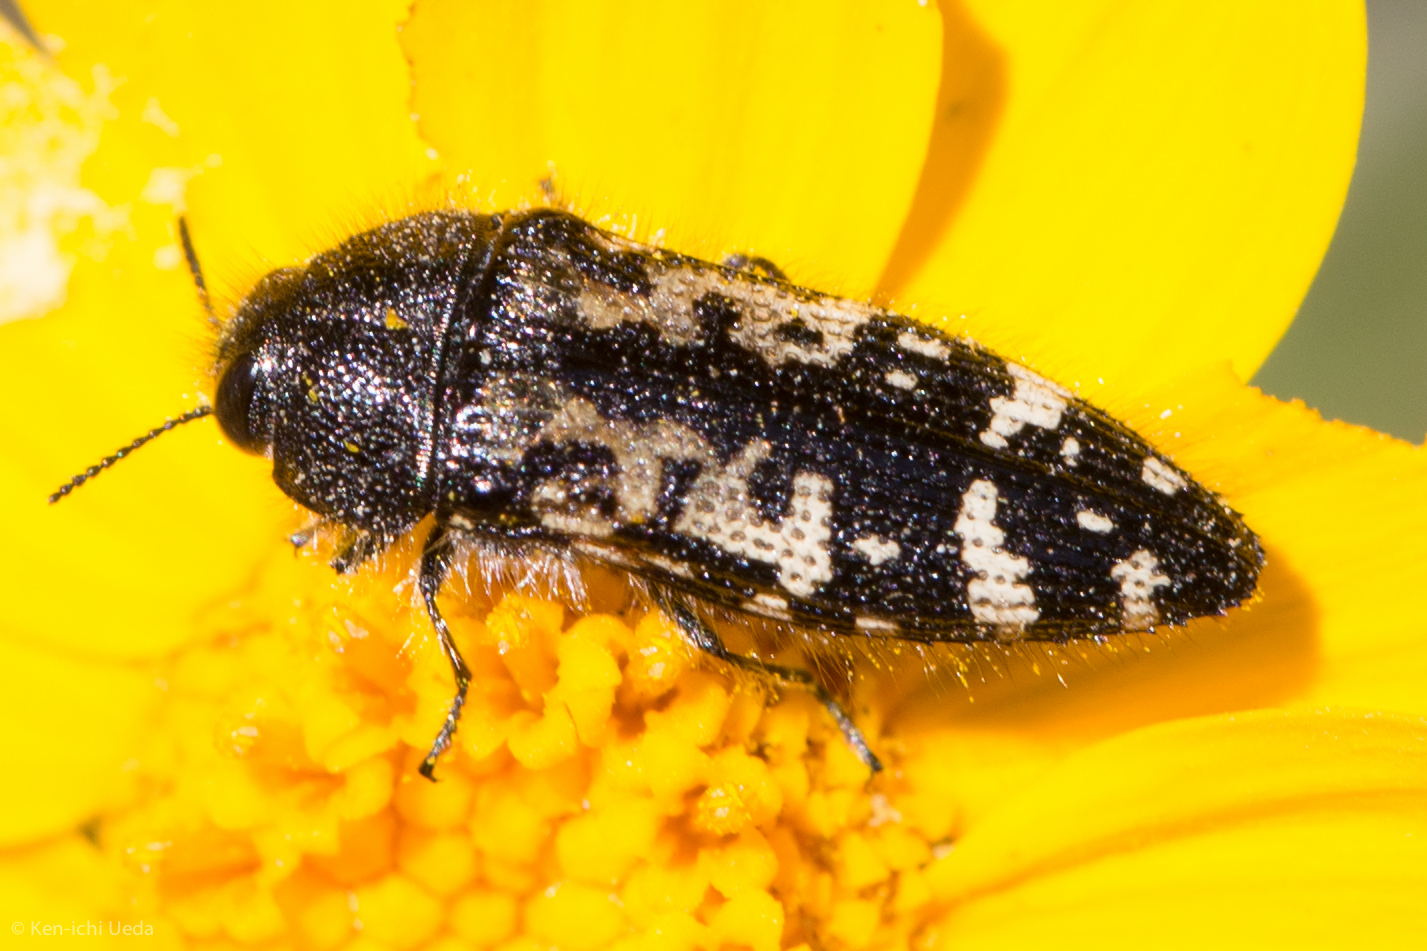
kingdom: Animalia
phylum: Arthropoda
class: Insecta
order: Coleoptera
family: Buprestidae
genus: Acmaeodera
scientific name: Acmaeodera connexa
